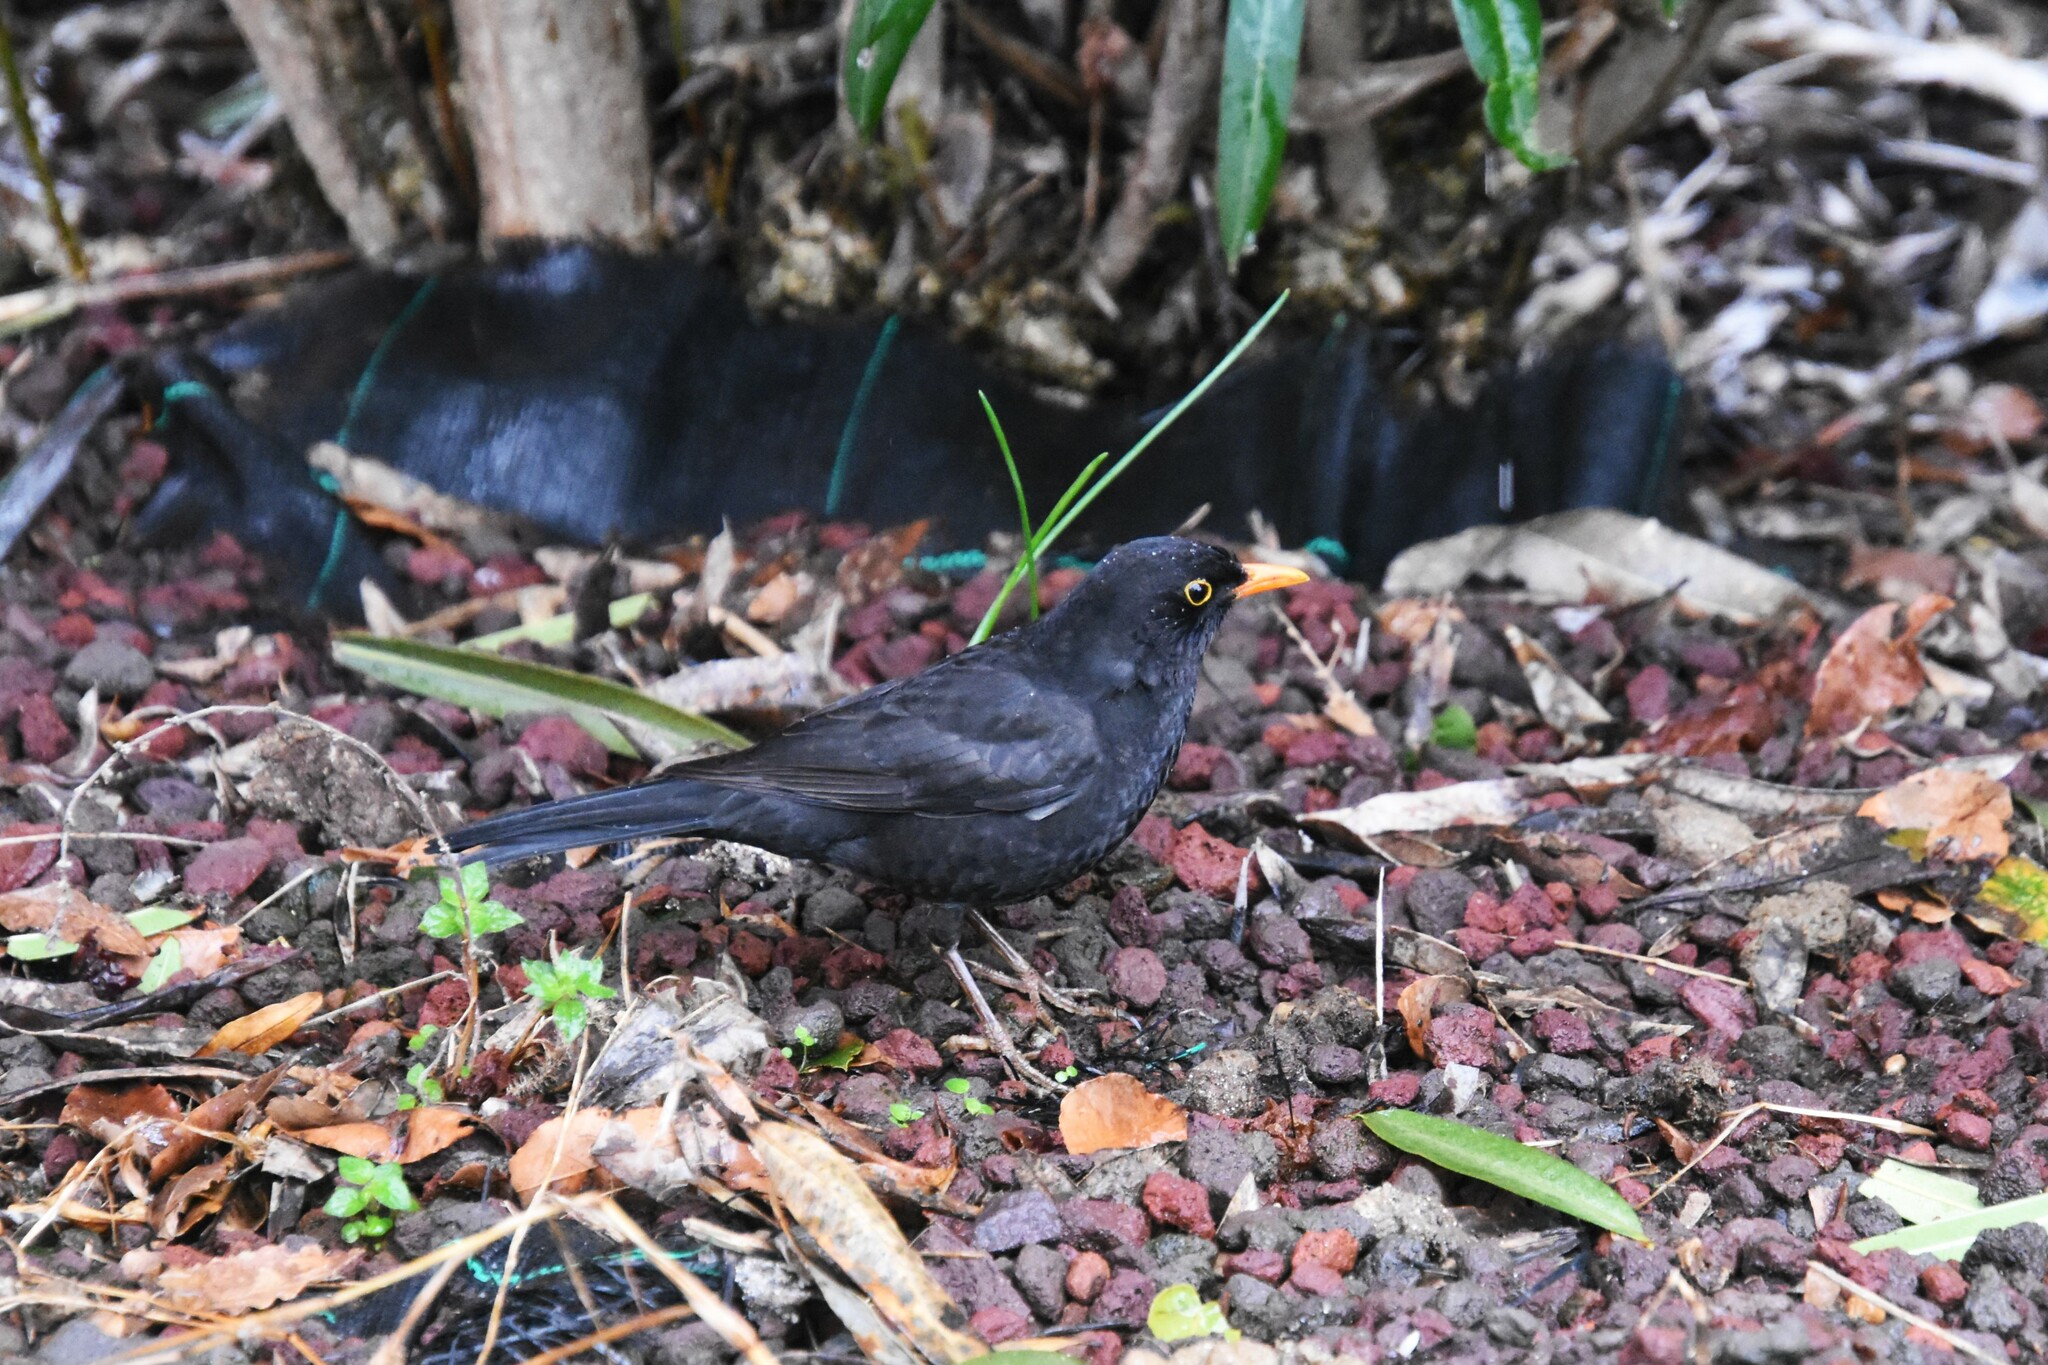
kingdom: Animalia
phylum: Chordata
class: Aves
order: Passeriformes
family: Turdidae
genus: Turdus
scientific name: Turdus merula
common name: Common blackbird
